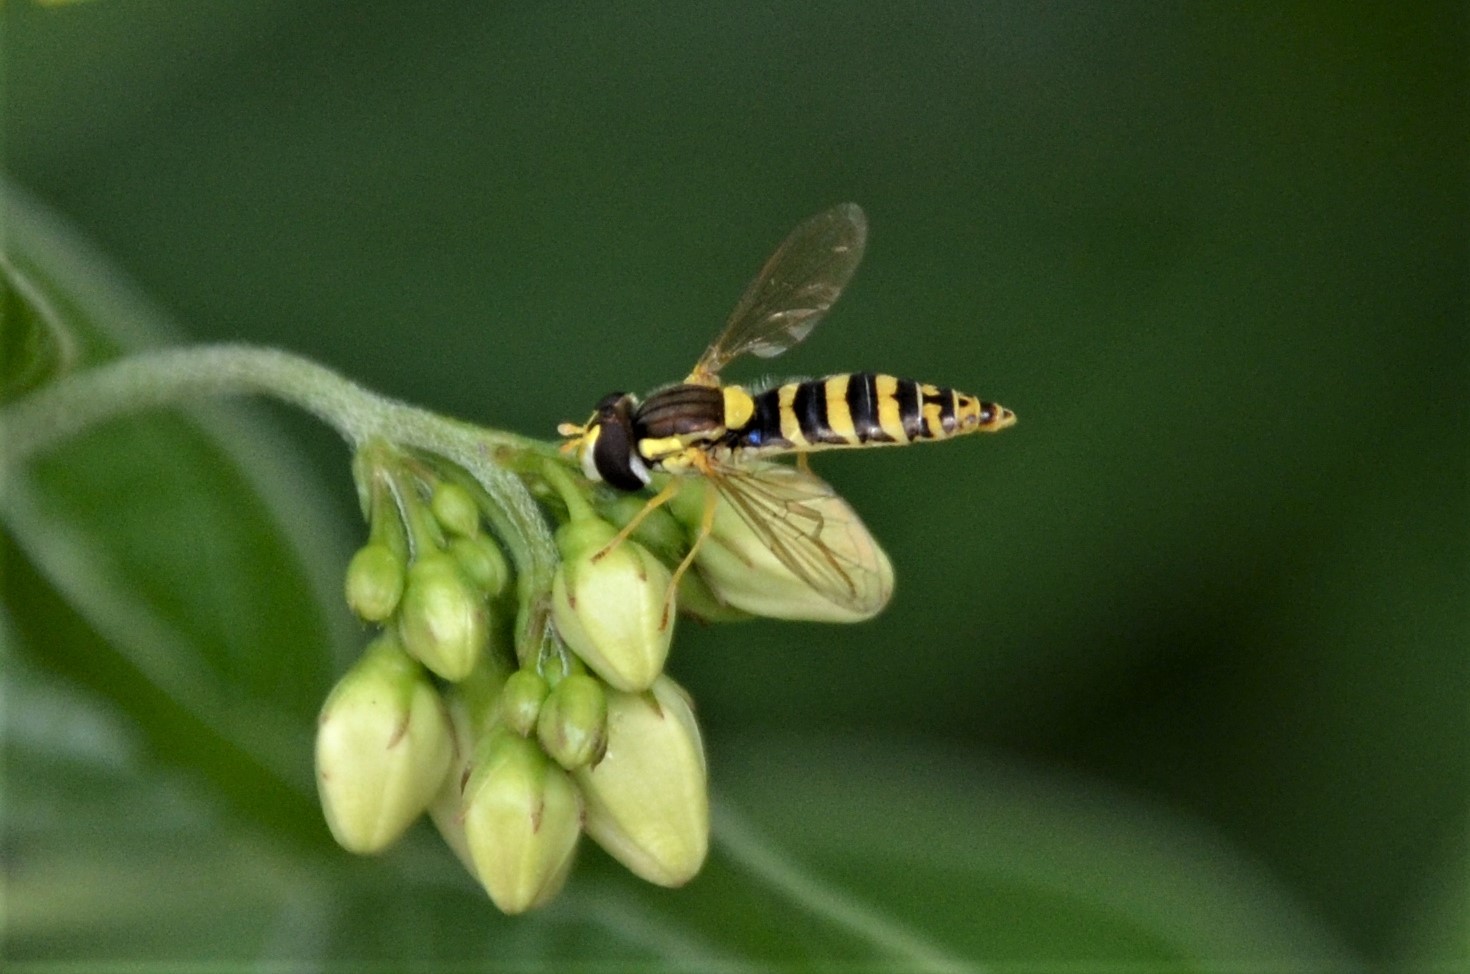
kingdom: Animalia
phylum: Arthropoda
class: Insecta
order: Diptera
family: Syrphidae
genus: Sphaerophoria
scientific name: Sphaerophoria scripta
